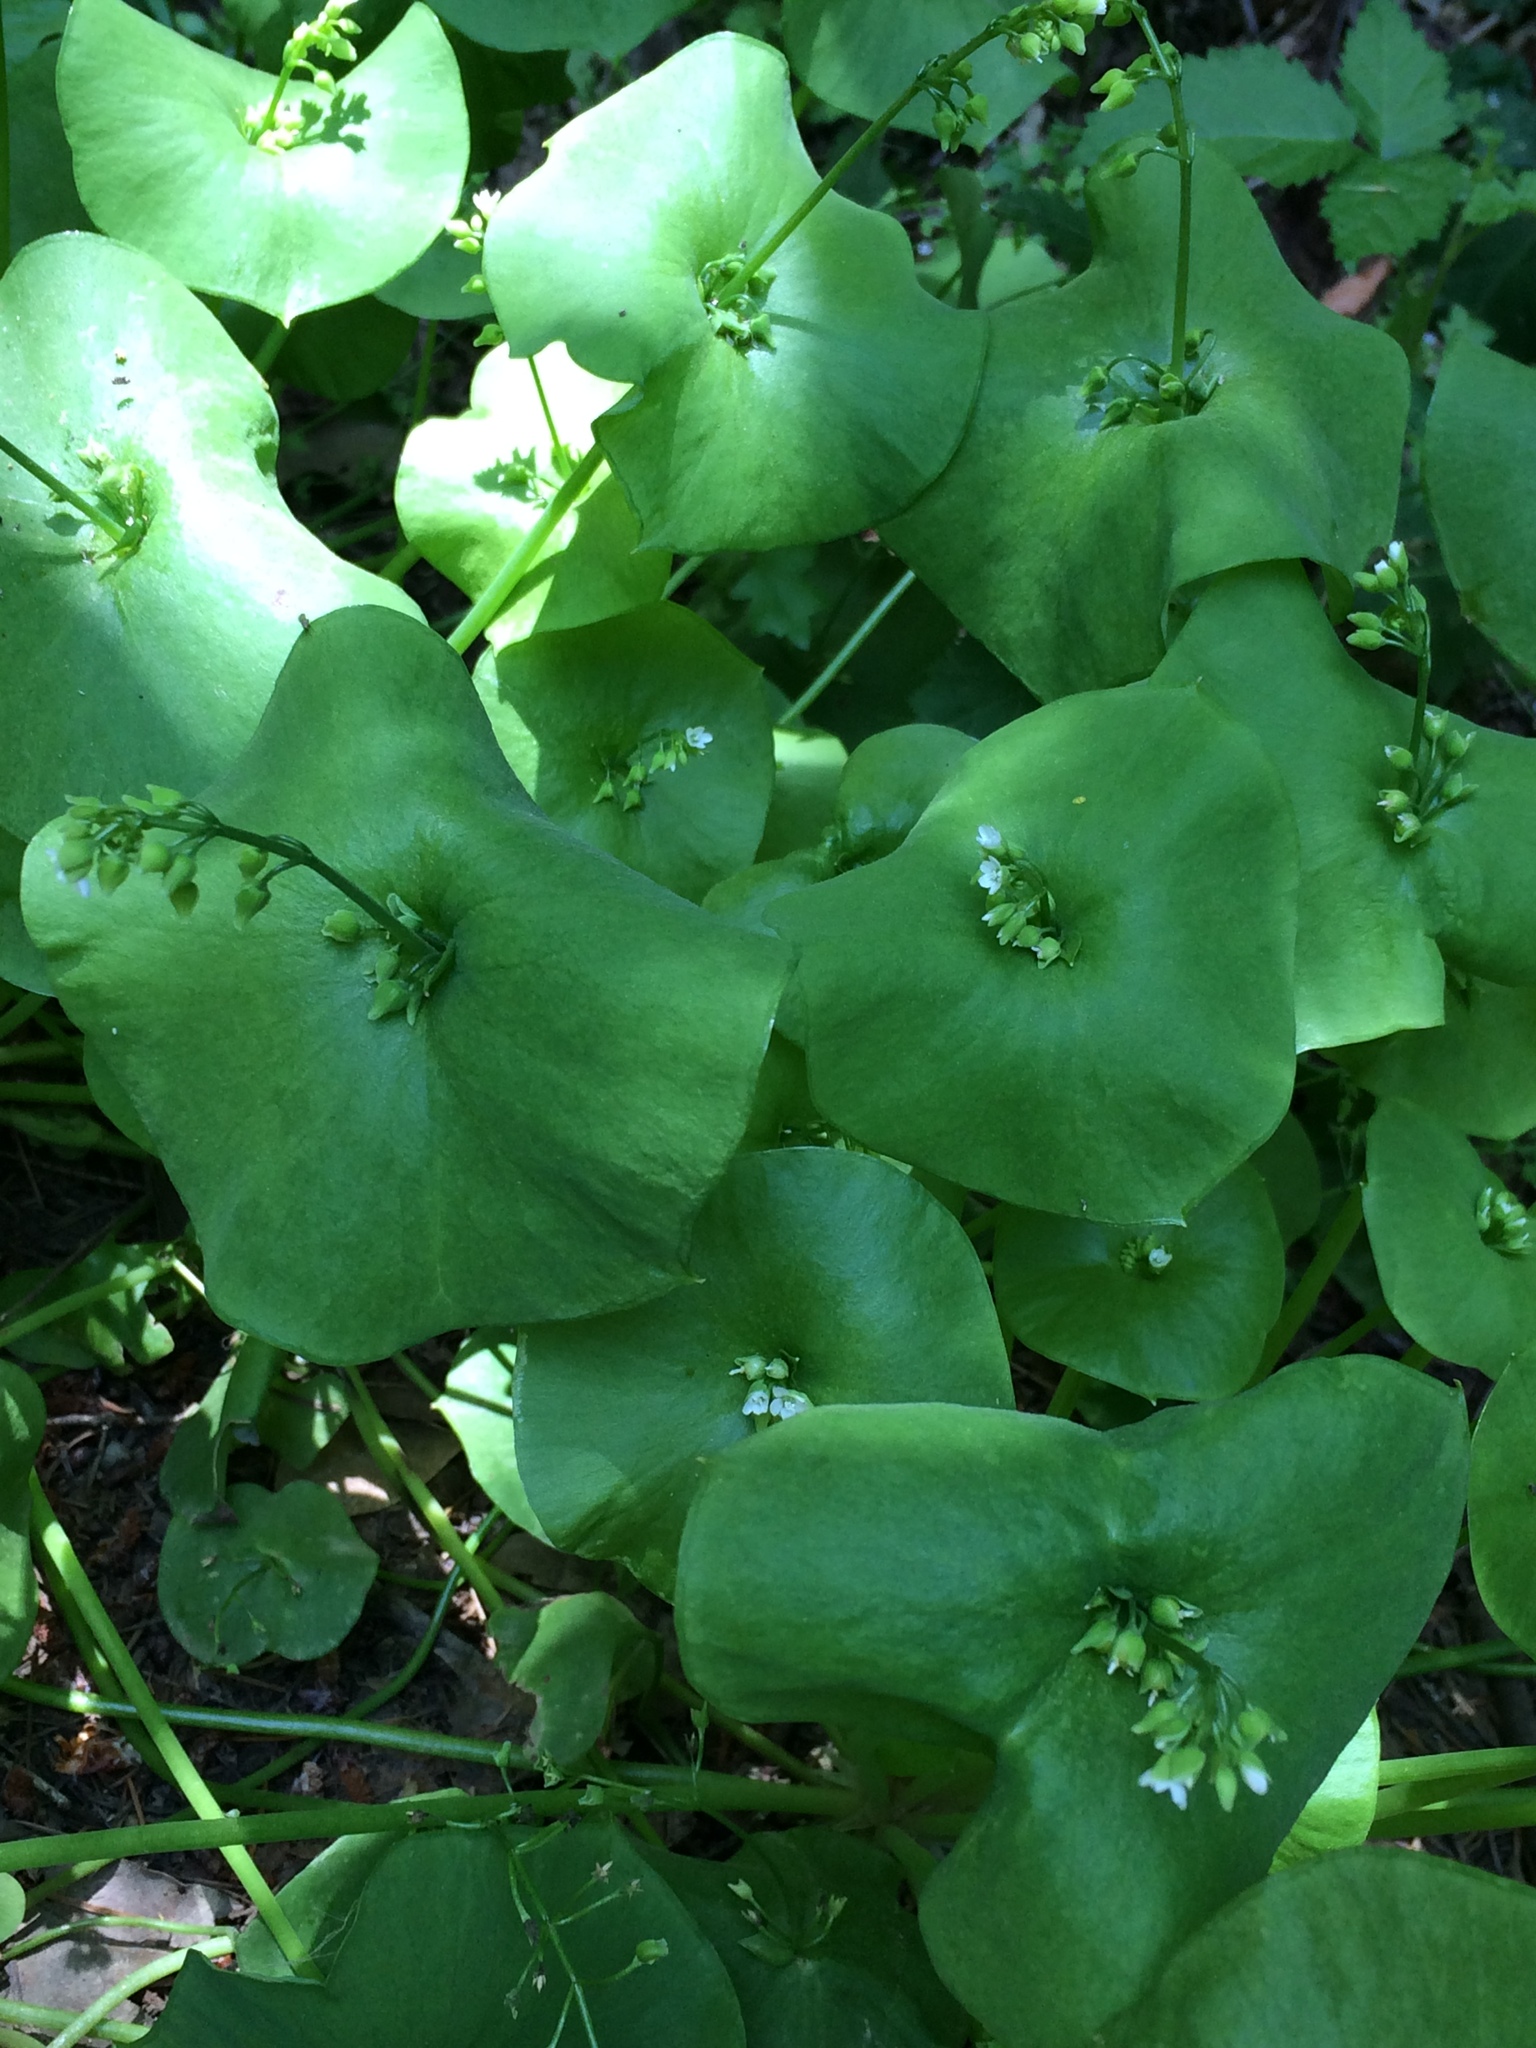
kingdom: Plantae
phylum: Tracheophyta
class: Magnoliopsida
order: Caryophyllales
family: Montiaceae
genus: Claytonia
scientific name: Claytonia perfoliata
